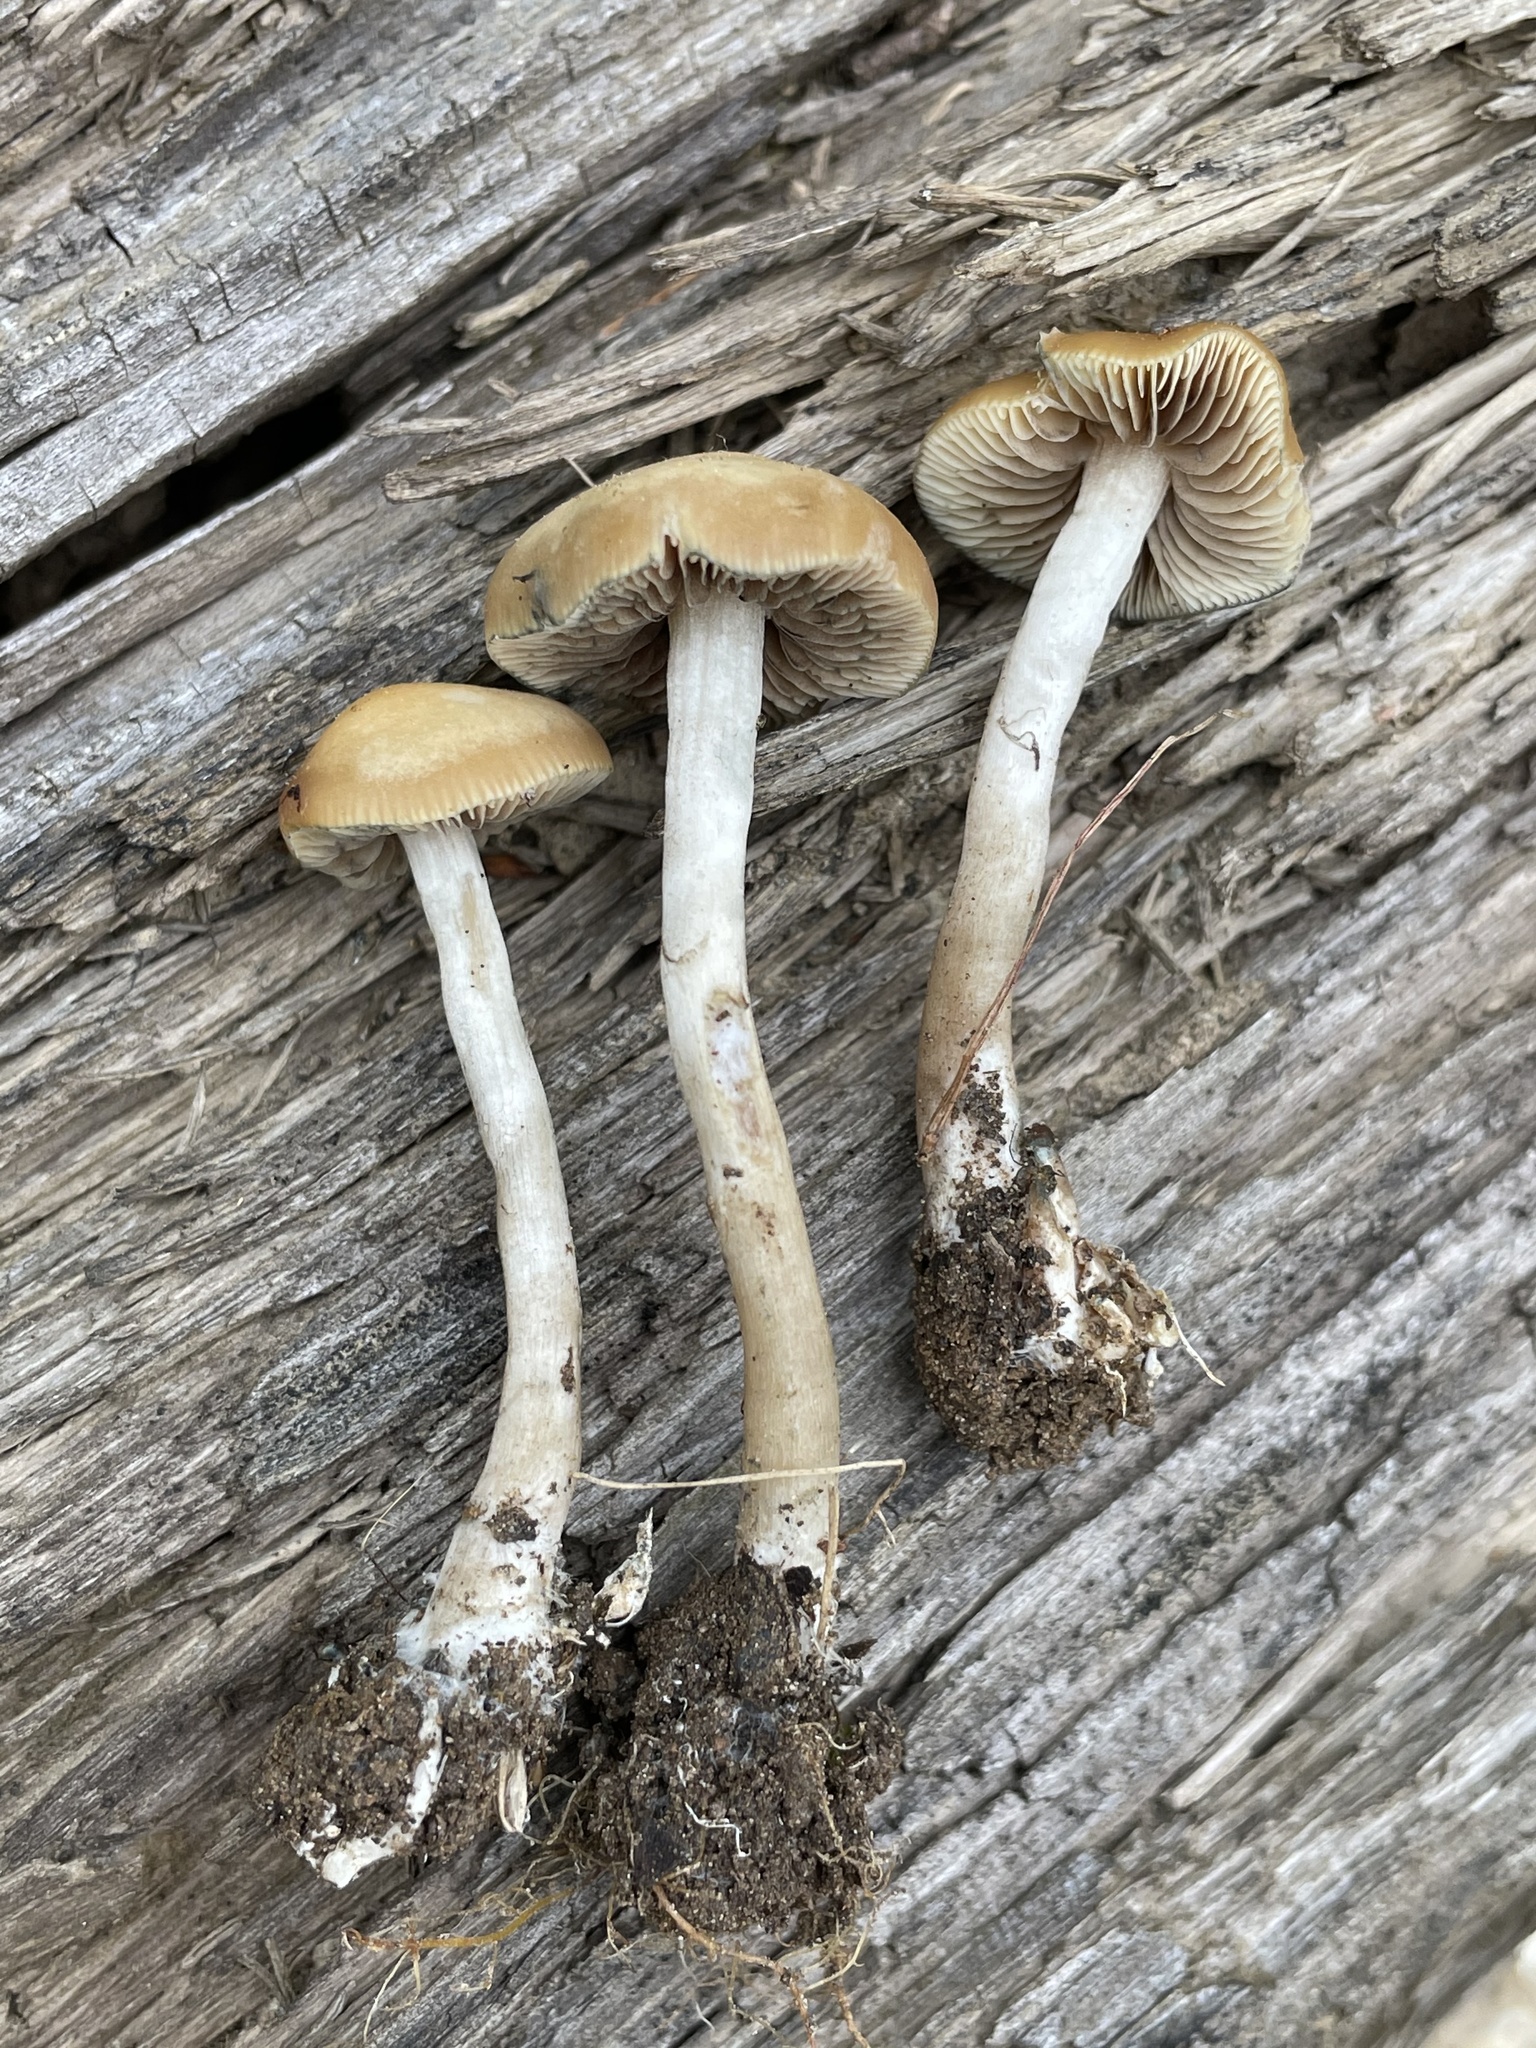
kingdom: Fungi
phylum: Basidiomycota
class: Agaricomycetes
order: Agaricales
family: Hymenogastraceae
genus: Psilocybe
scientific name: Psilocybe ovoideocystidiata
